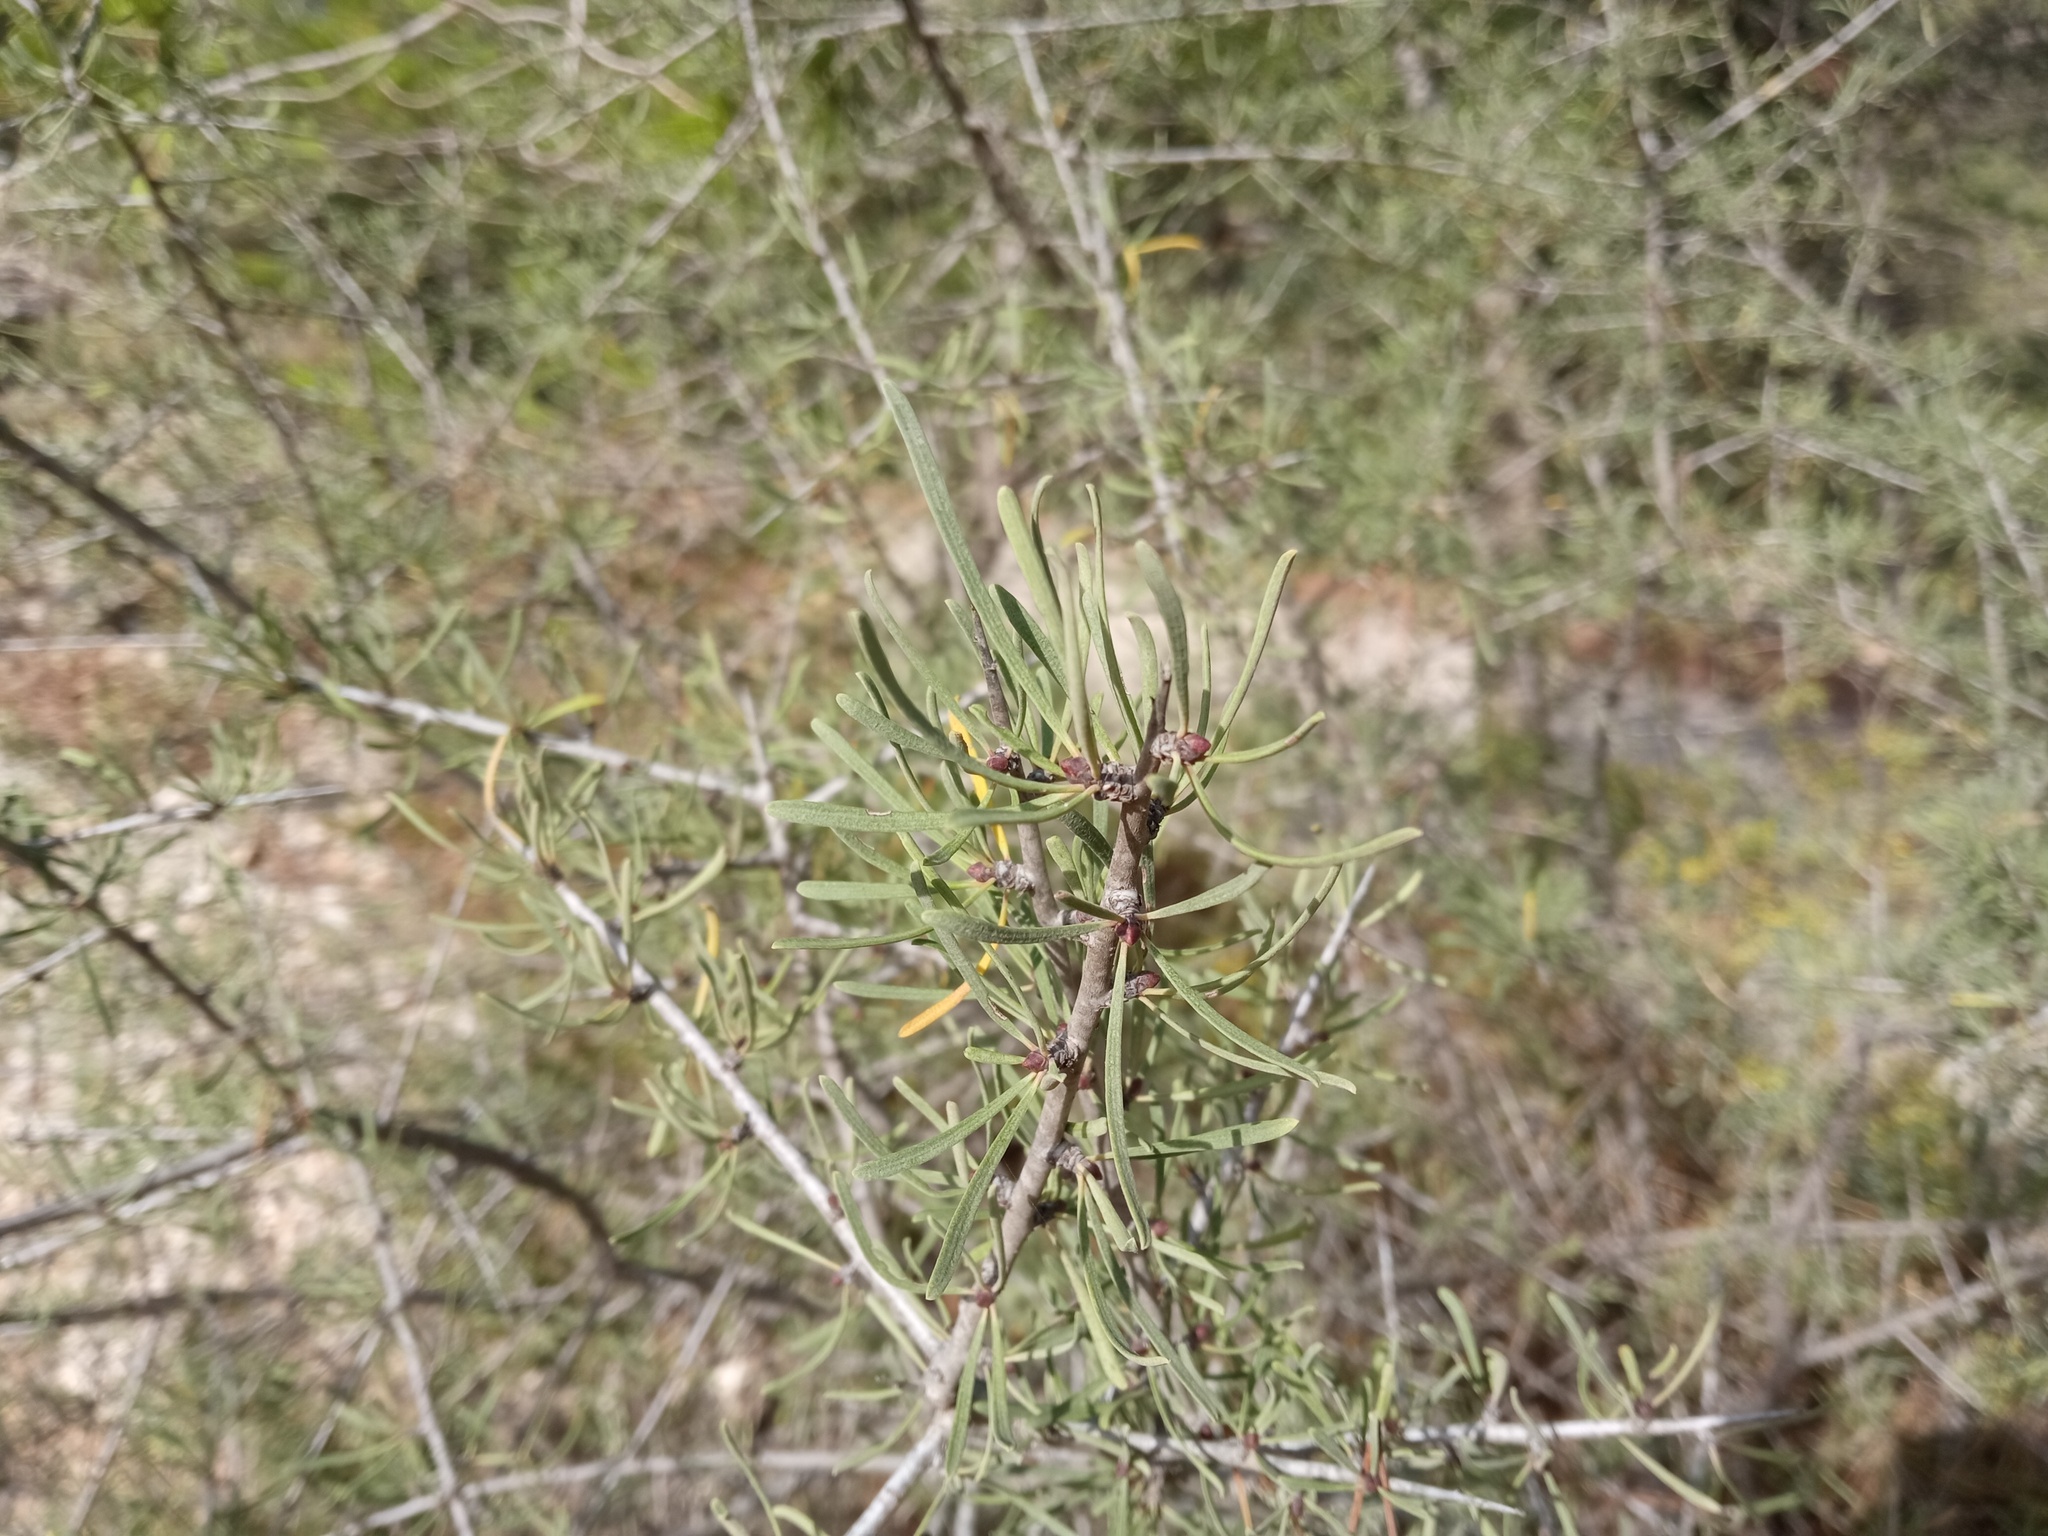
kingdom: Plantae
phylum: Tracheophyta
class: Magnoliopsida
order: Rosales
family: Rhamnaceae
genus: Rhamnus
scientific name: Rhamnus lycioides
